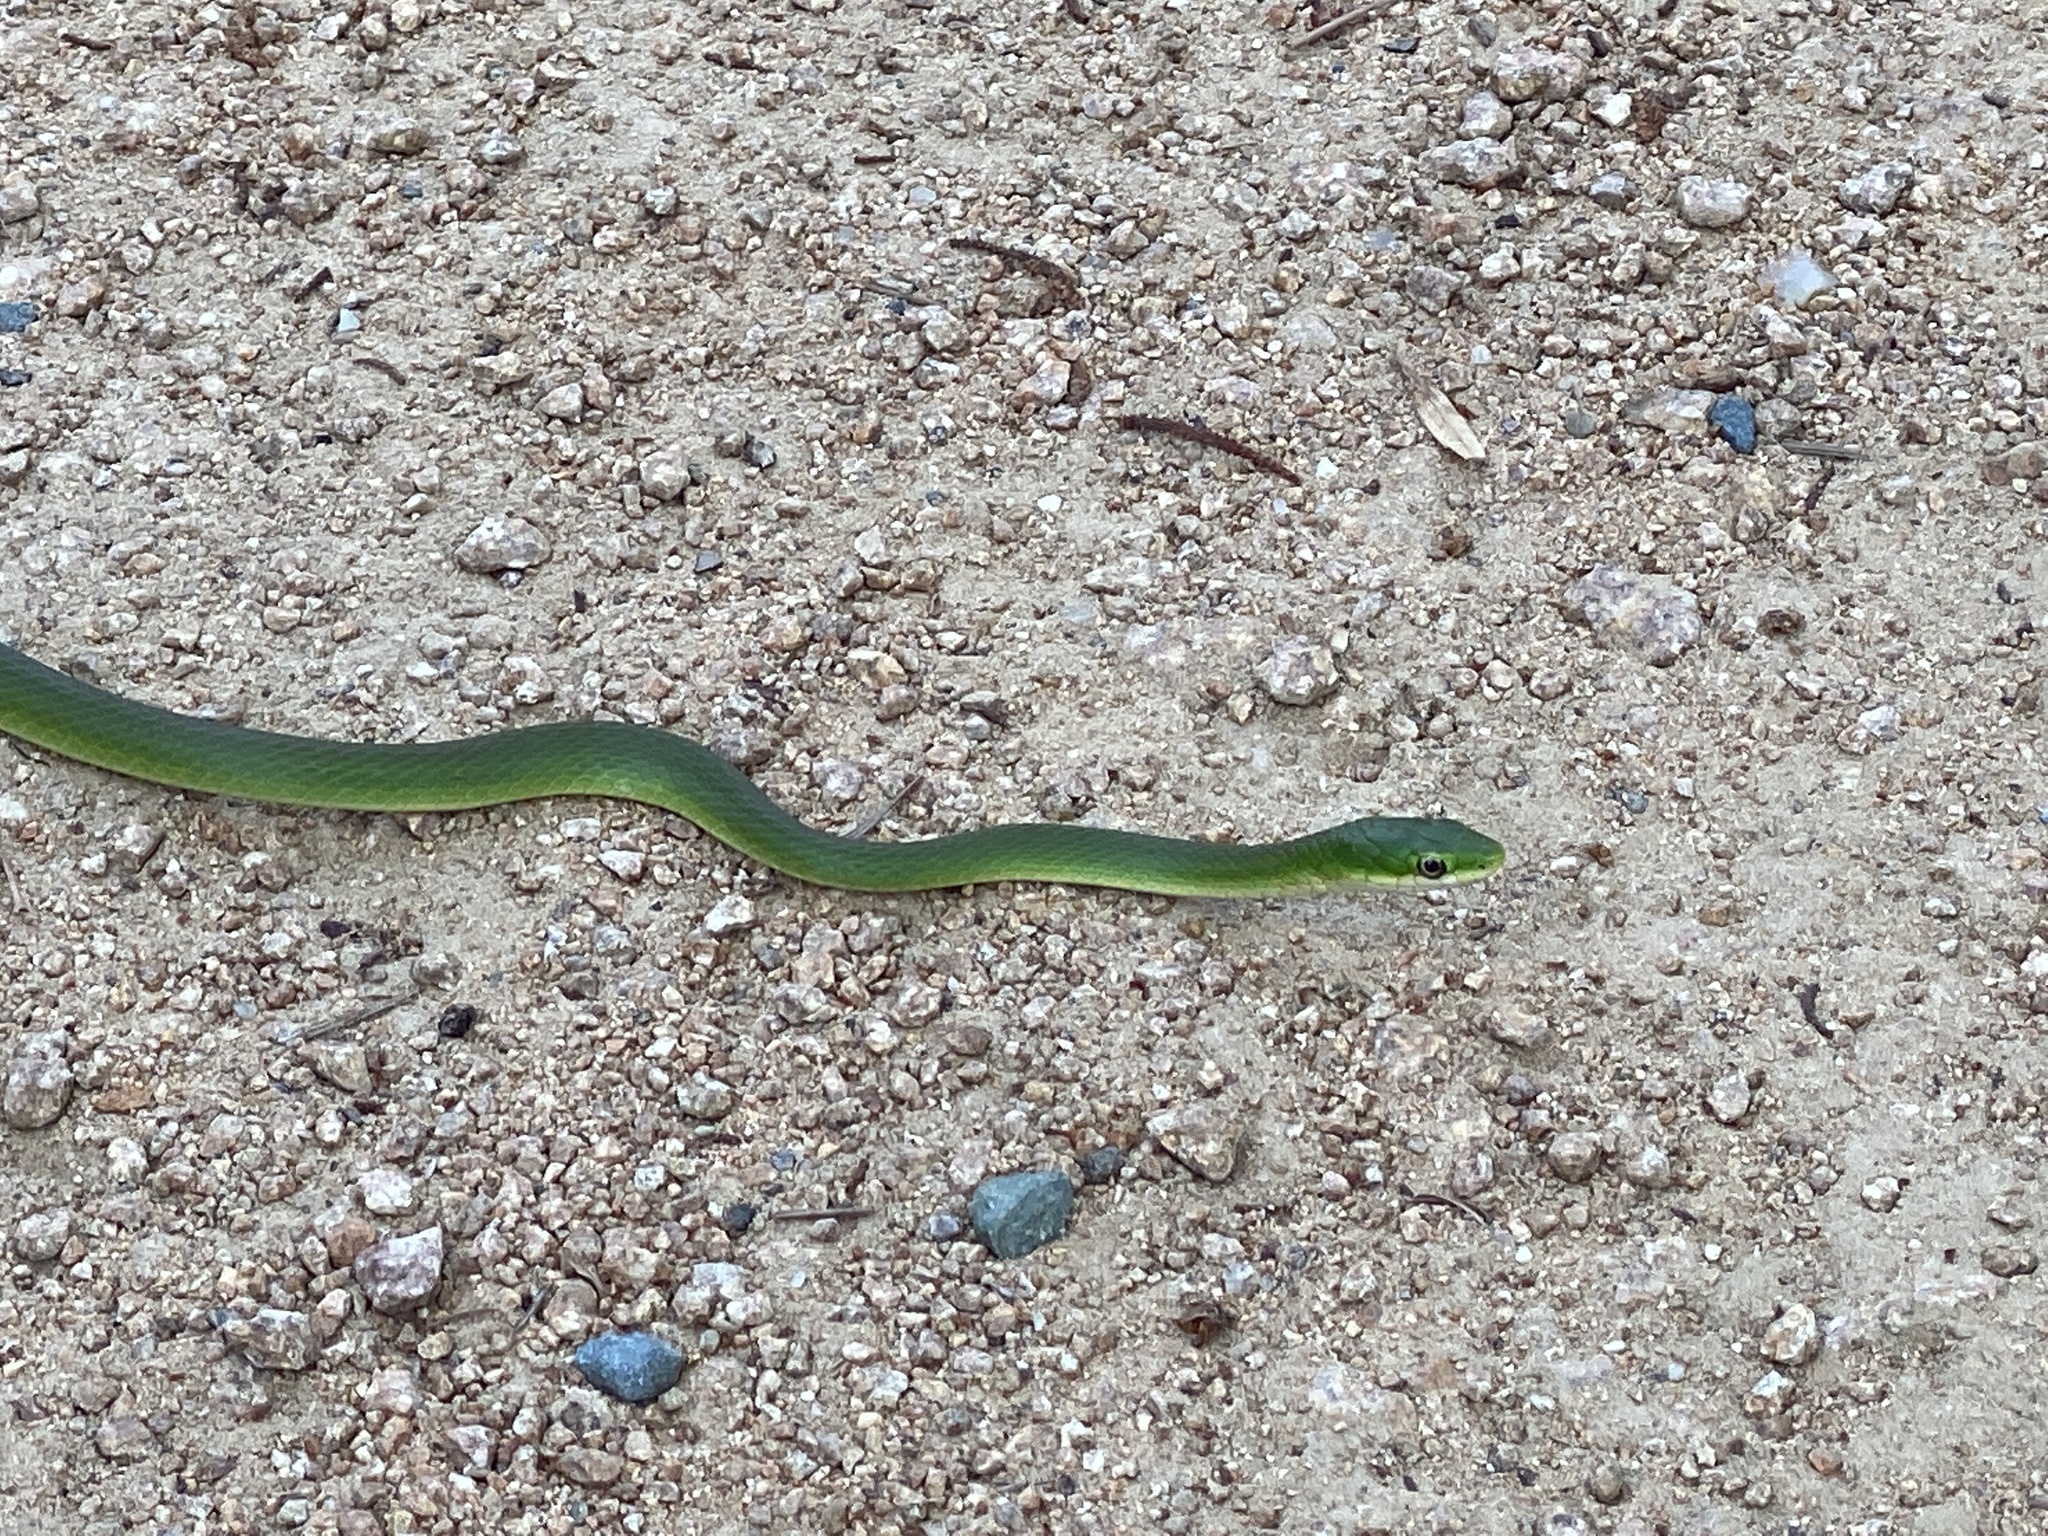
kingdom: Animalia
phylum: Chordata
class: Squamata
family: Colubridae
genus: Opheodrys
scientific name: Opheodrys aestivus
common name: Rough greensnake
